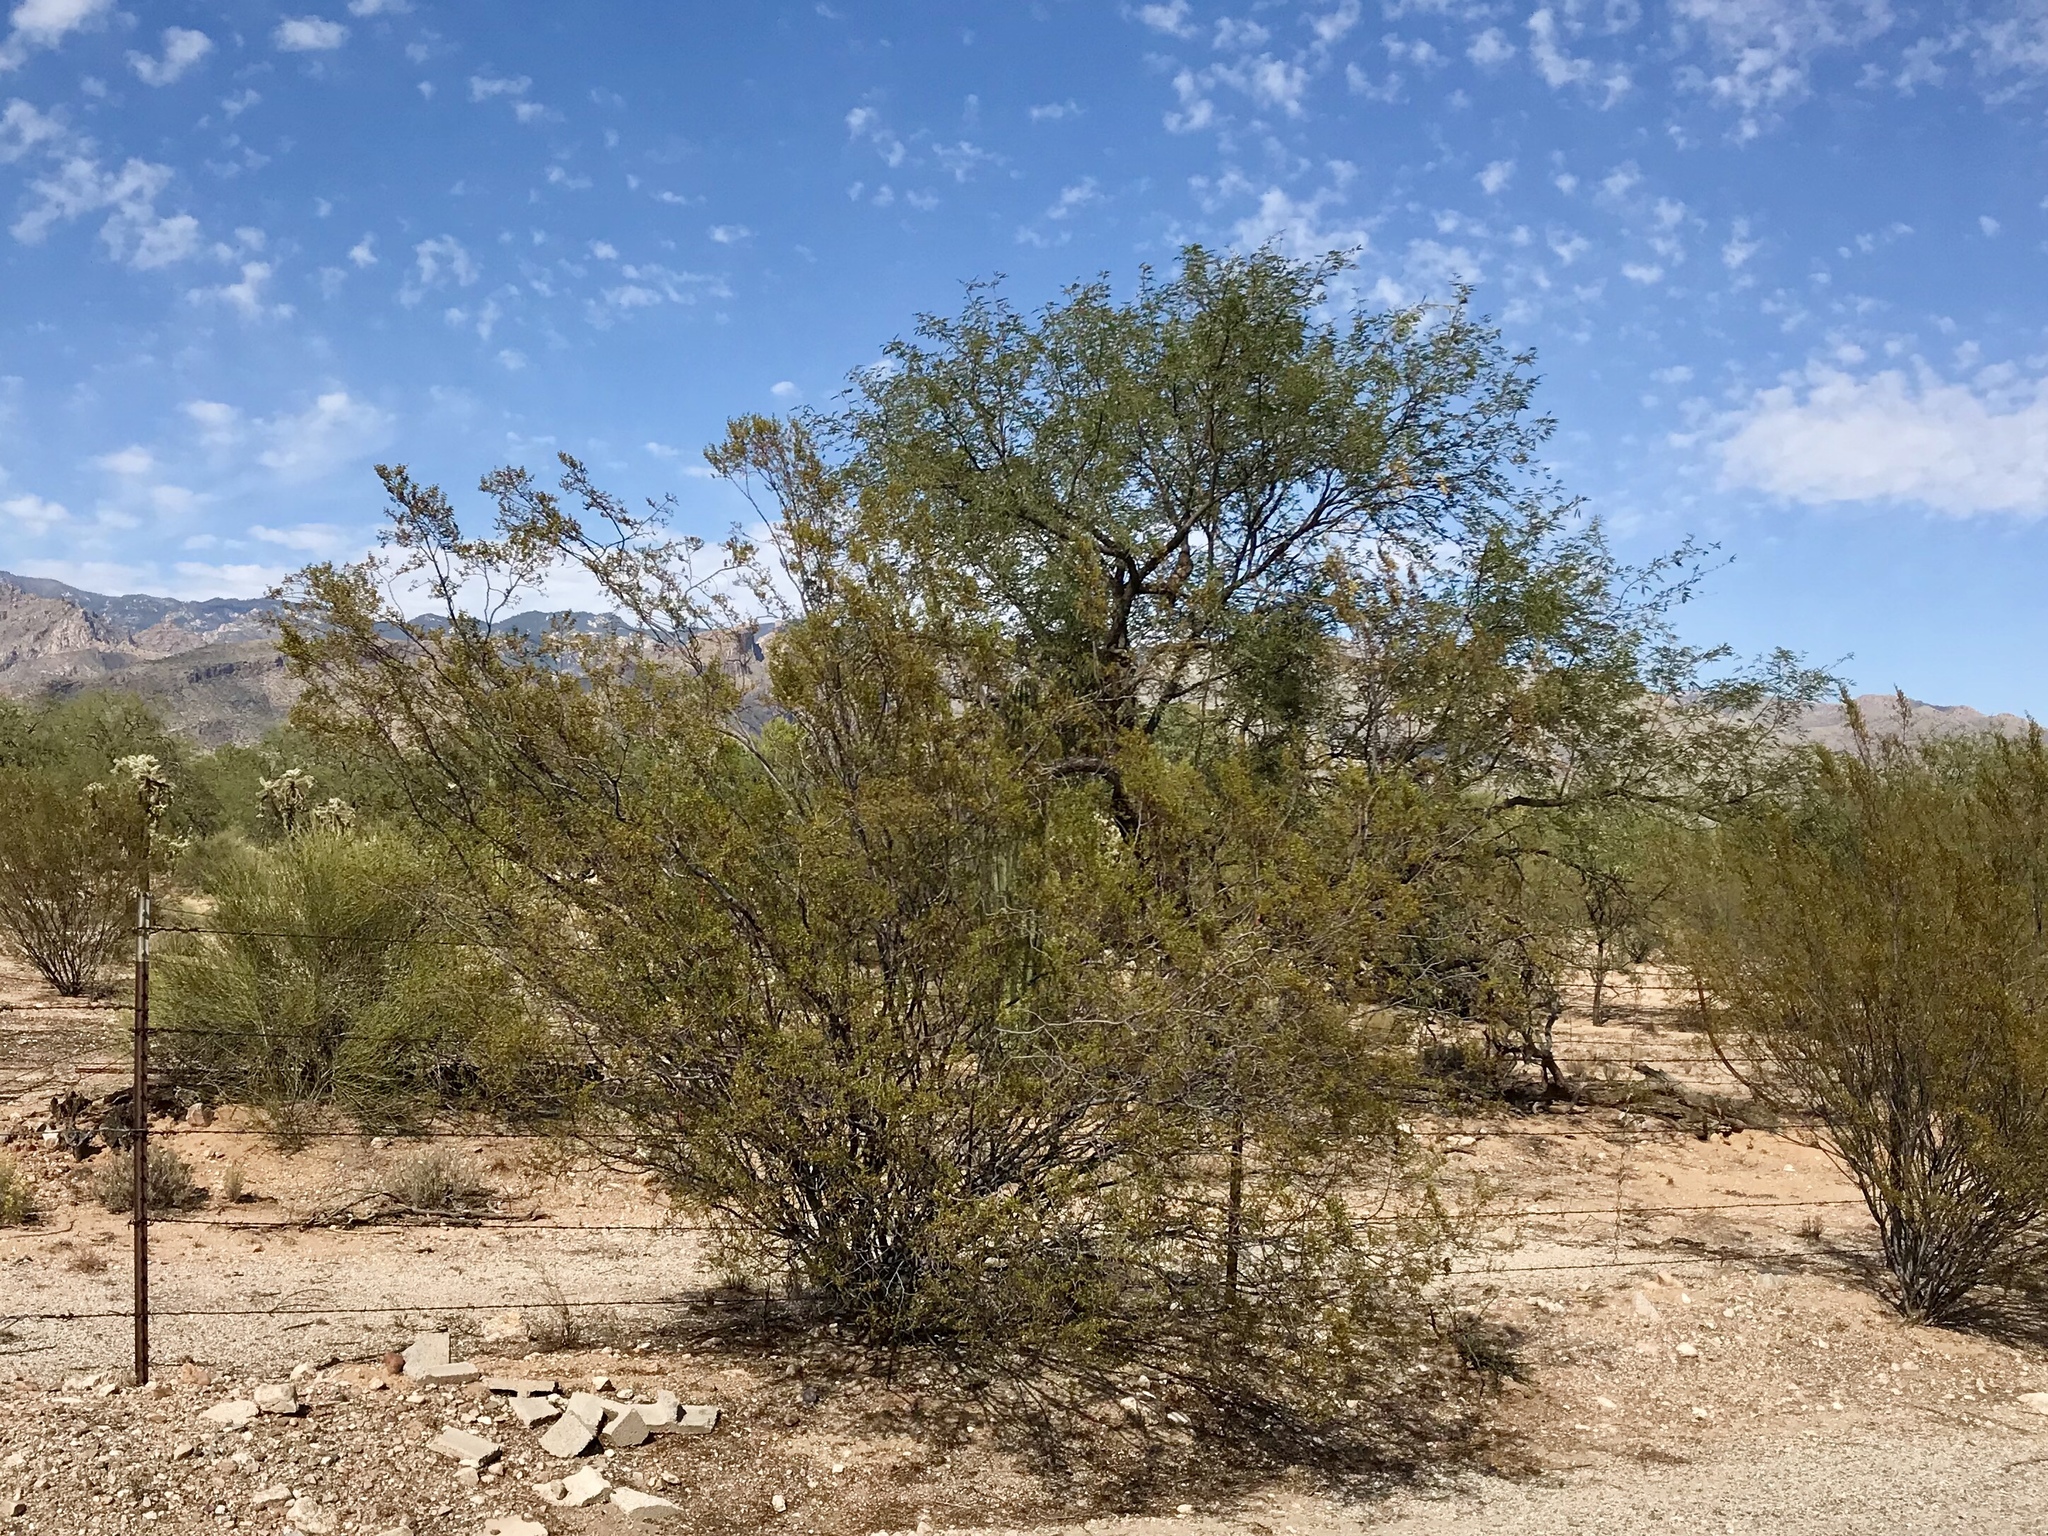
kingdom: Plantae
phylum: Tracheophyta
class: Magnoliopsida
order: Zygophyllales
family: Zygophyllaceae
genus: Larrea
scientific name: Larrea tridentata
